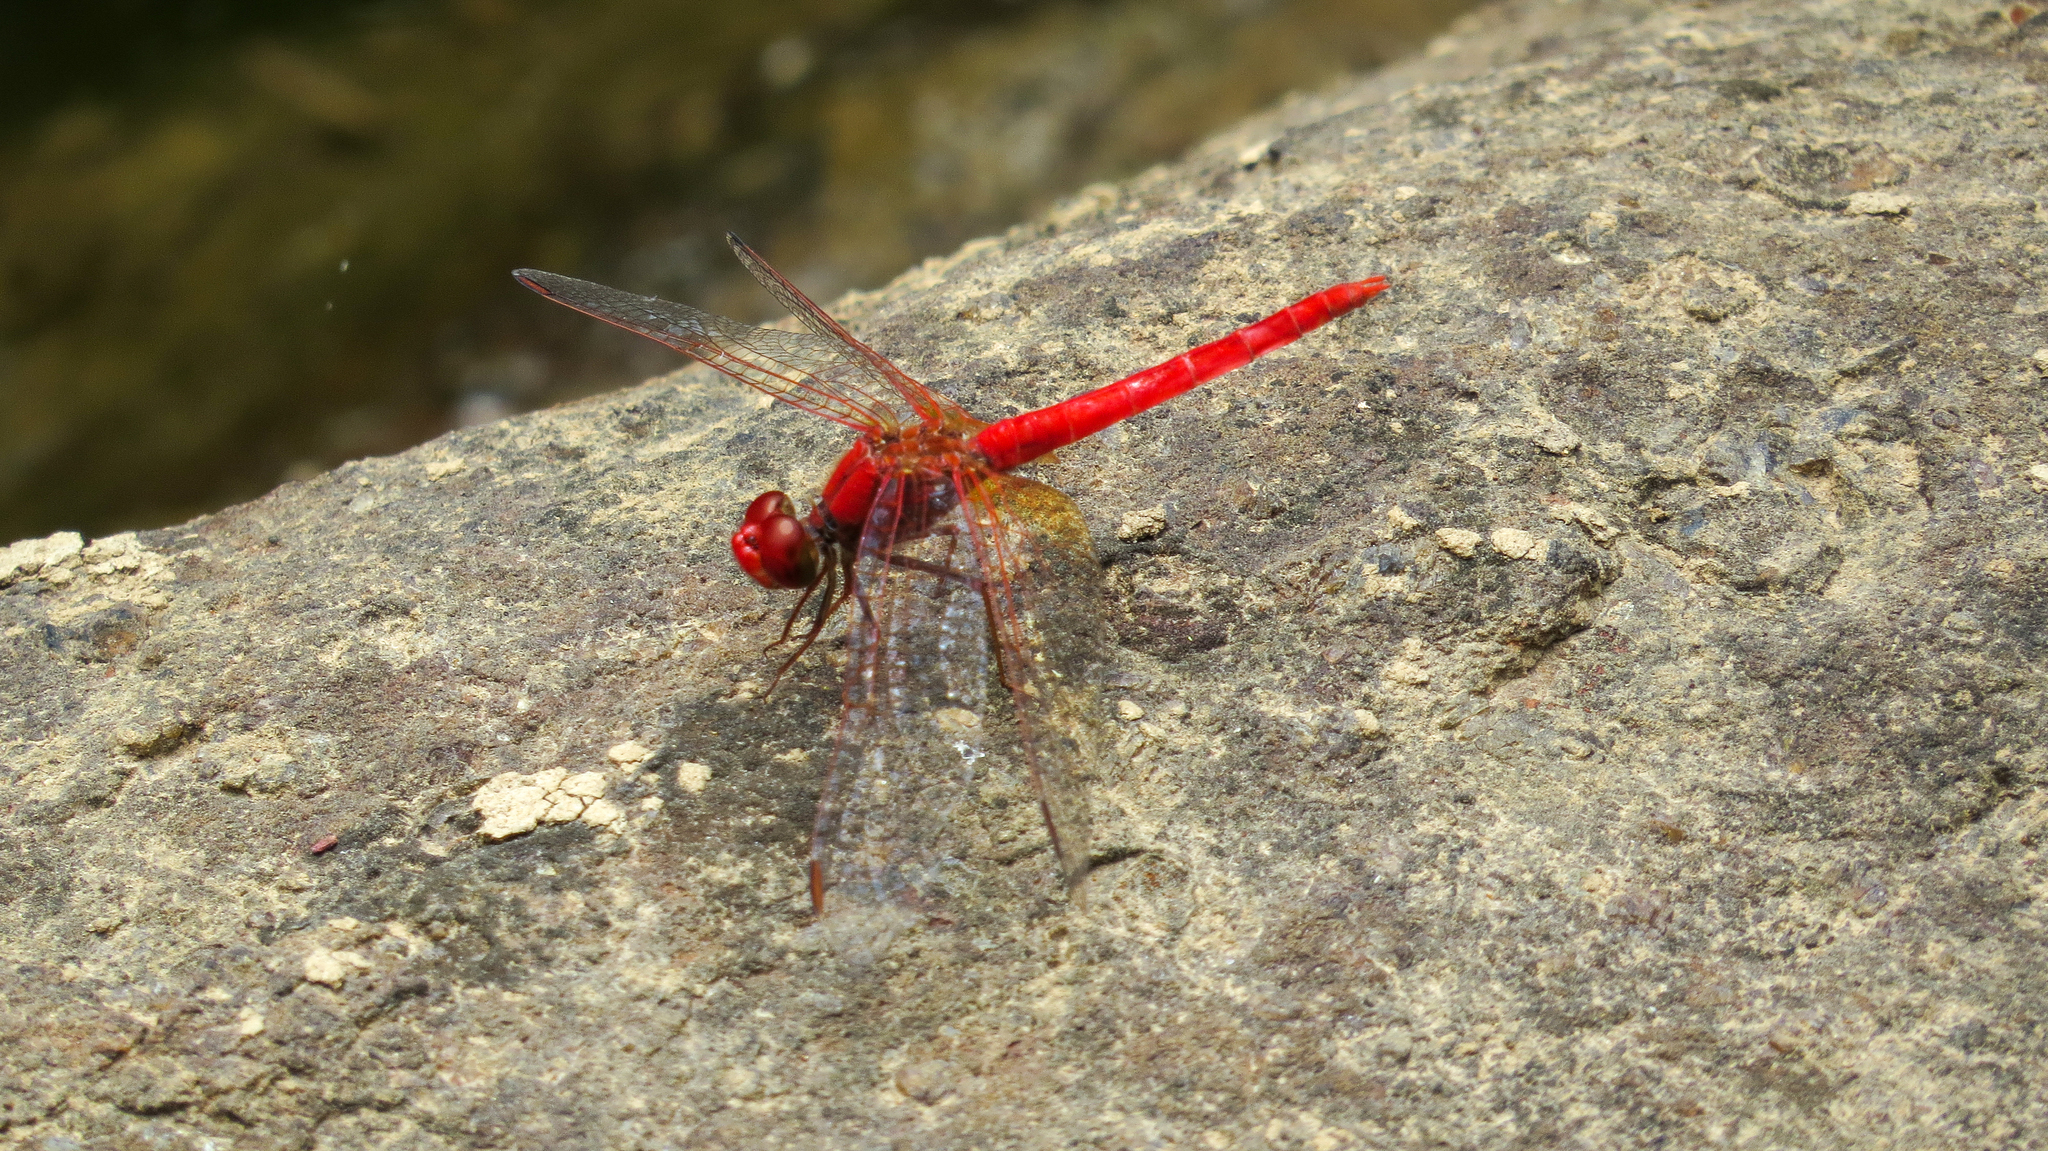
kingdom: Animalia
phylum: Arthropoda
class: Insecta
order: Odonata
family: Libellulidae
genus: Diplacodes
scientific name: Diplacodes haematodes
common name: Scarlet percher
